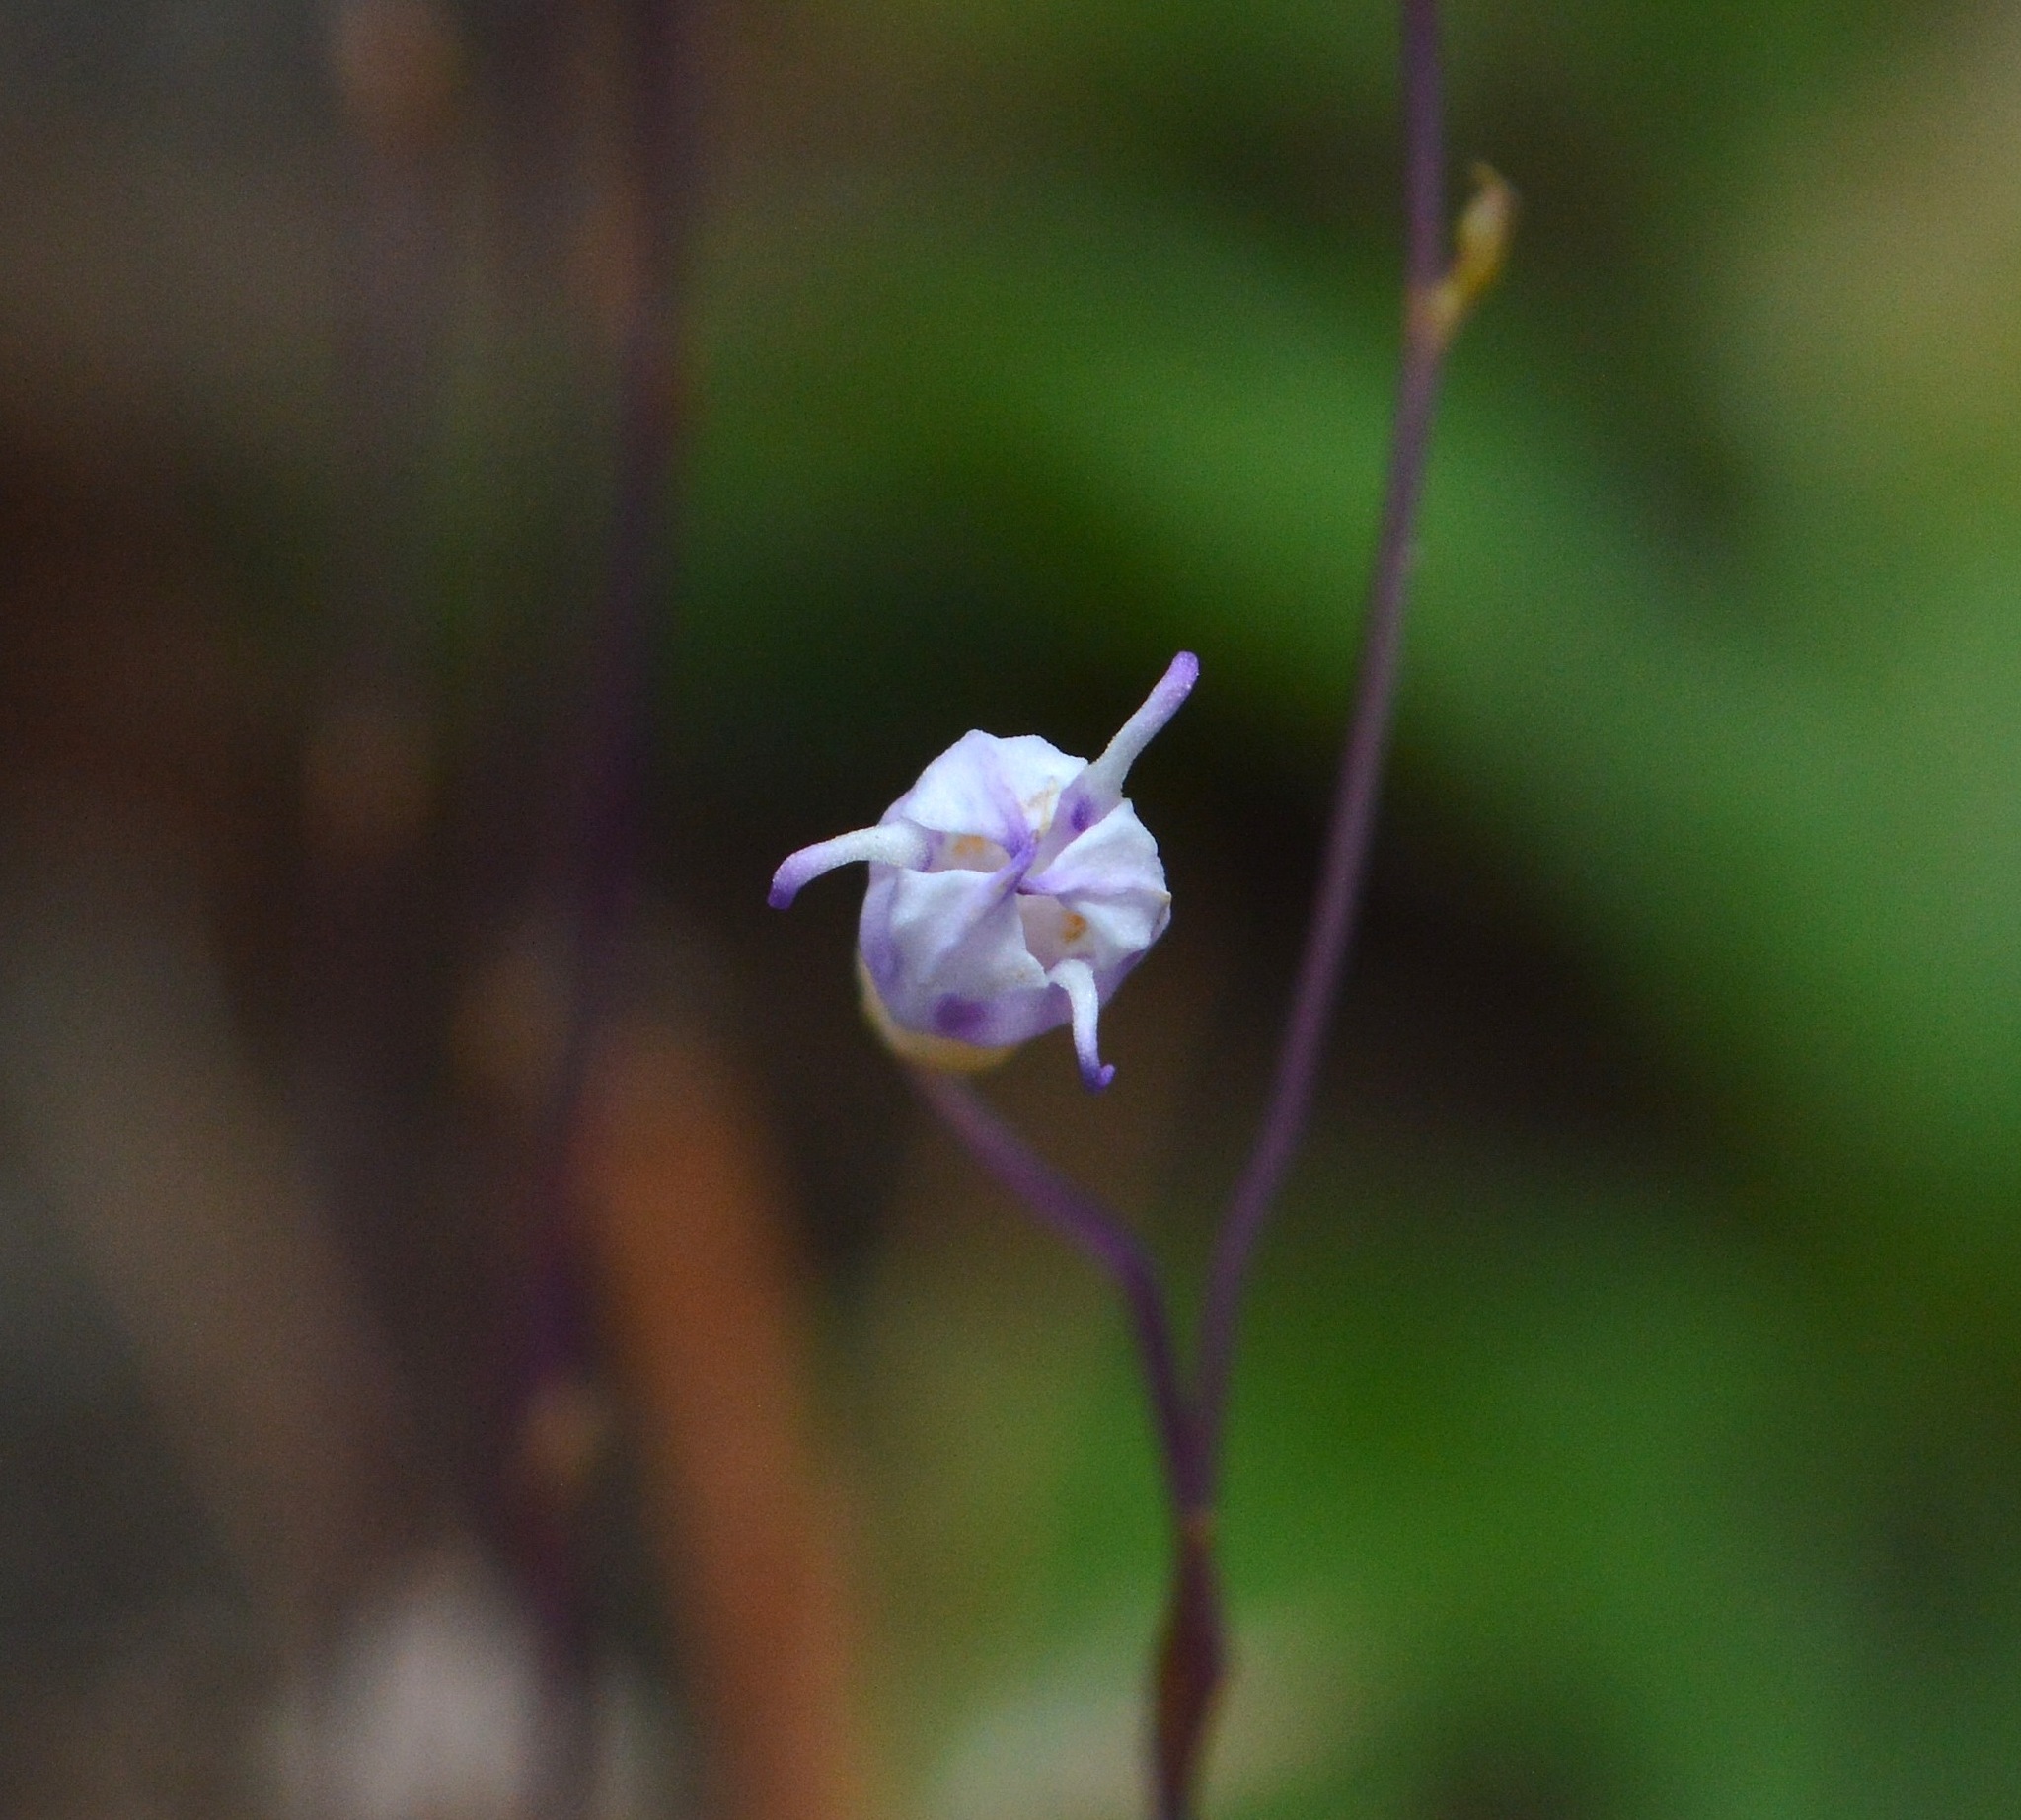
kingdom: Plantae
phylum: Tracheophyta
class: Liliopsida
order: Dioscoreales
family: Burmanniaceae
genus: Apteria
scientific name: Apteria aphylla
